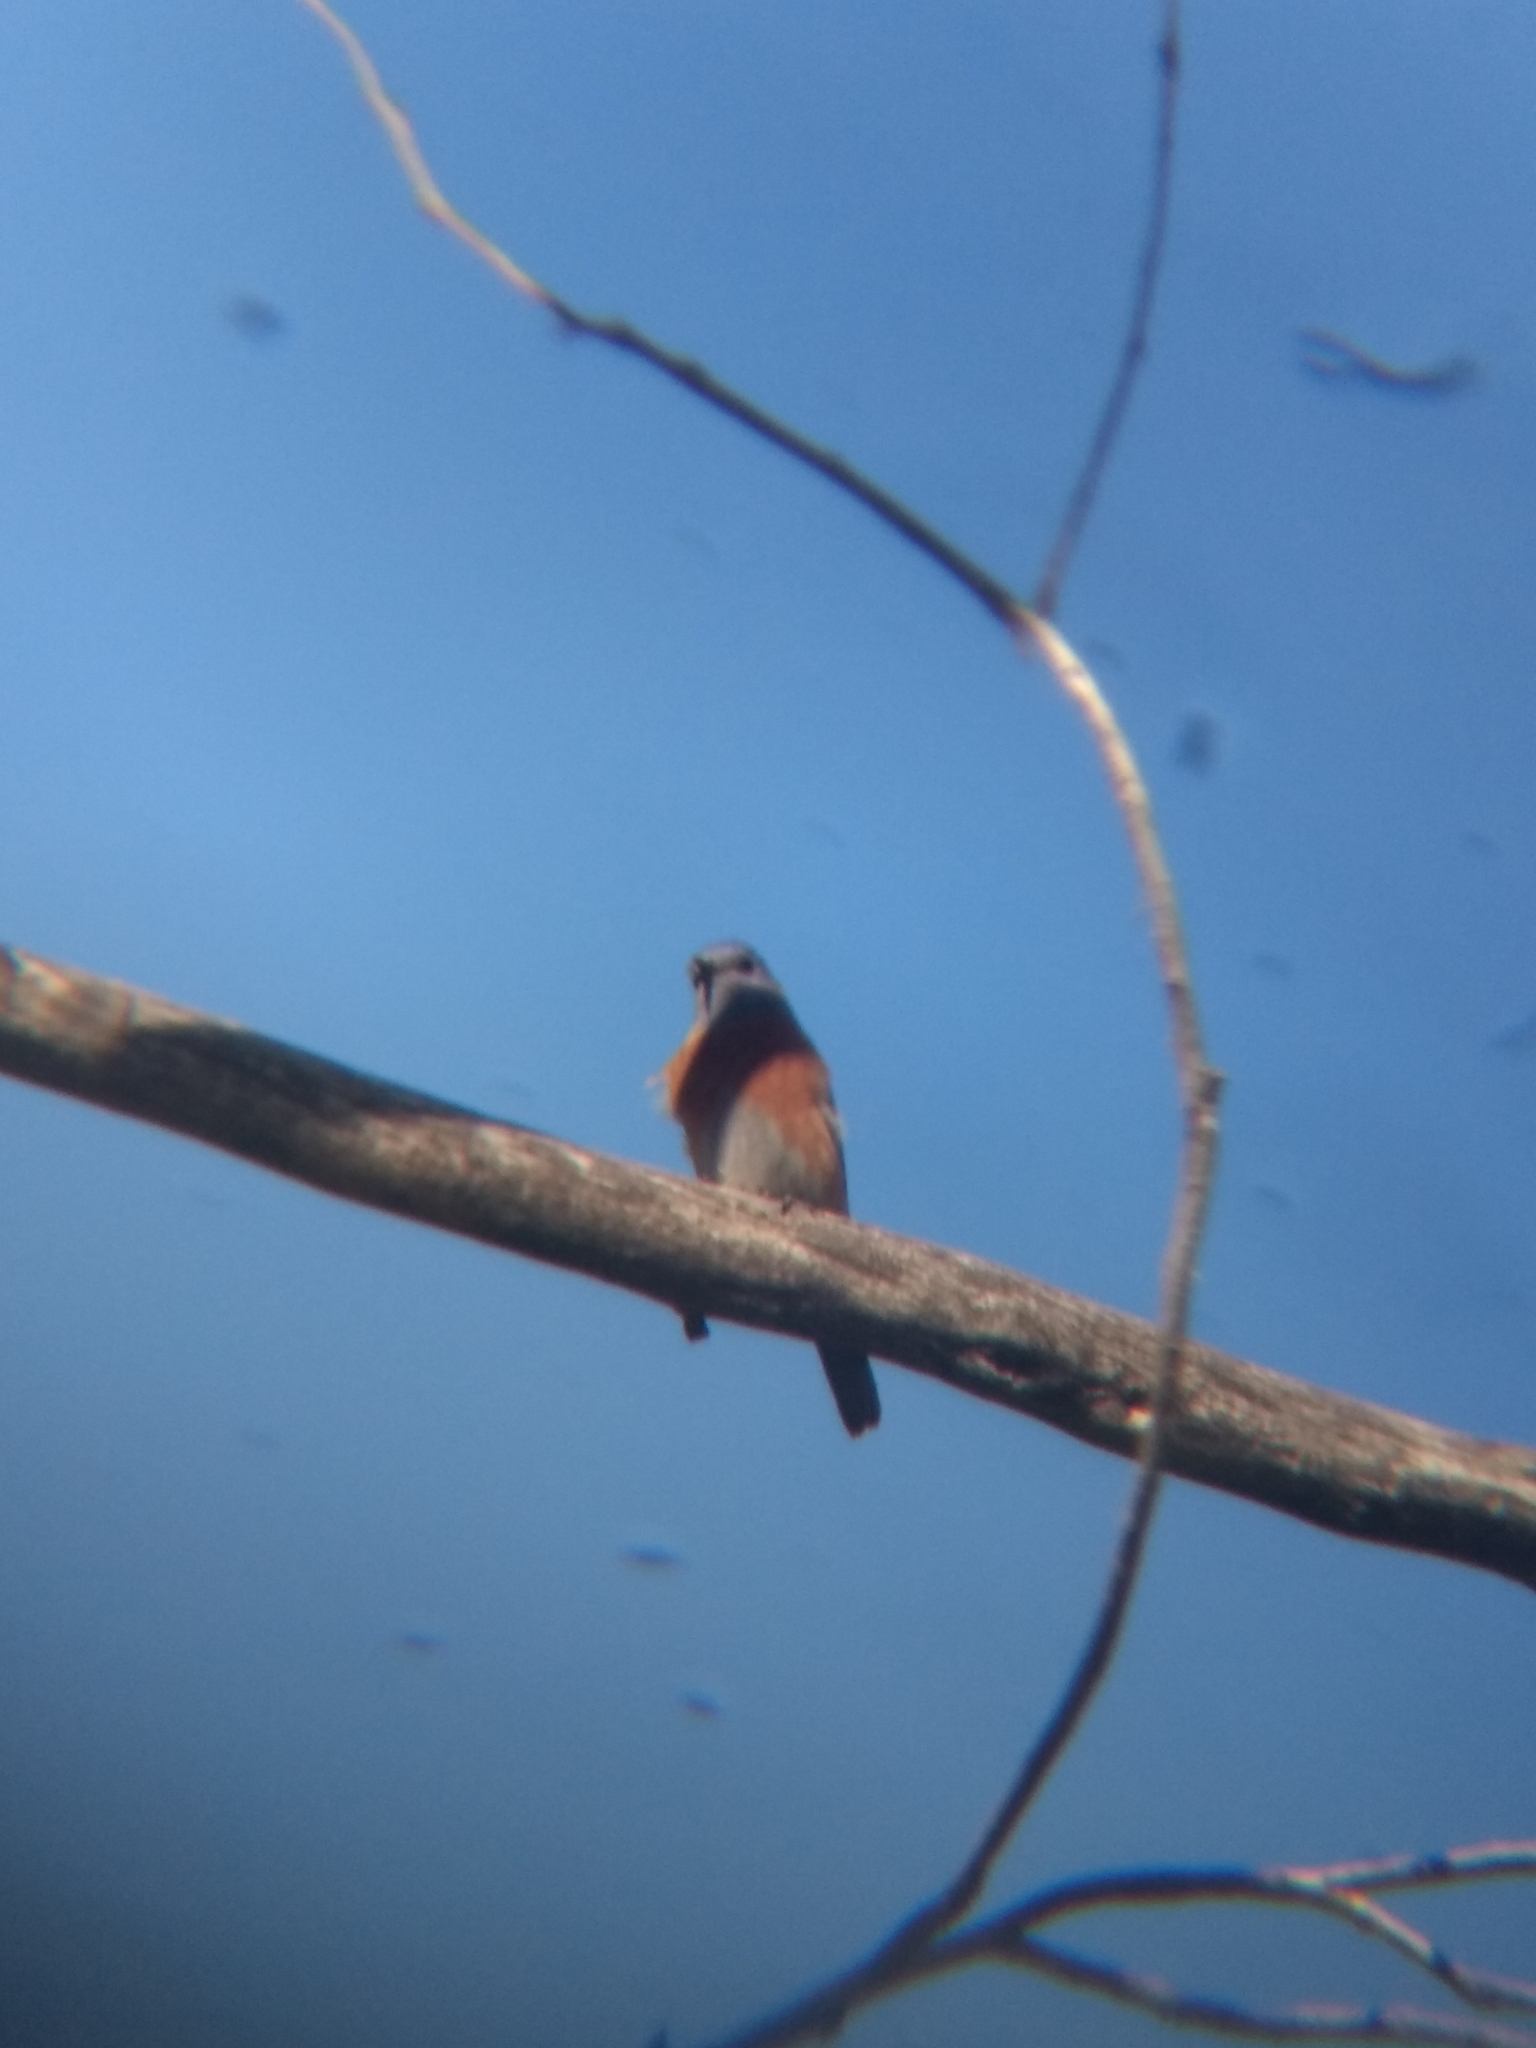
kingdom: Animalia
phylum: Chordata
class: Aves
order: Passeriformes
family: Turdidae
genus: Sialia
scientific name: Sialia mexicana
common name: Western bluebird
